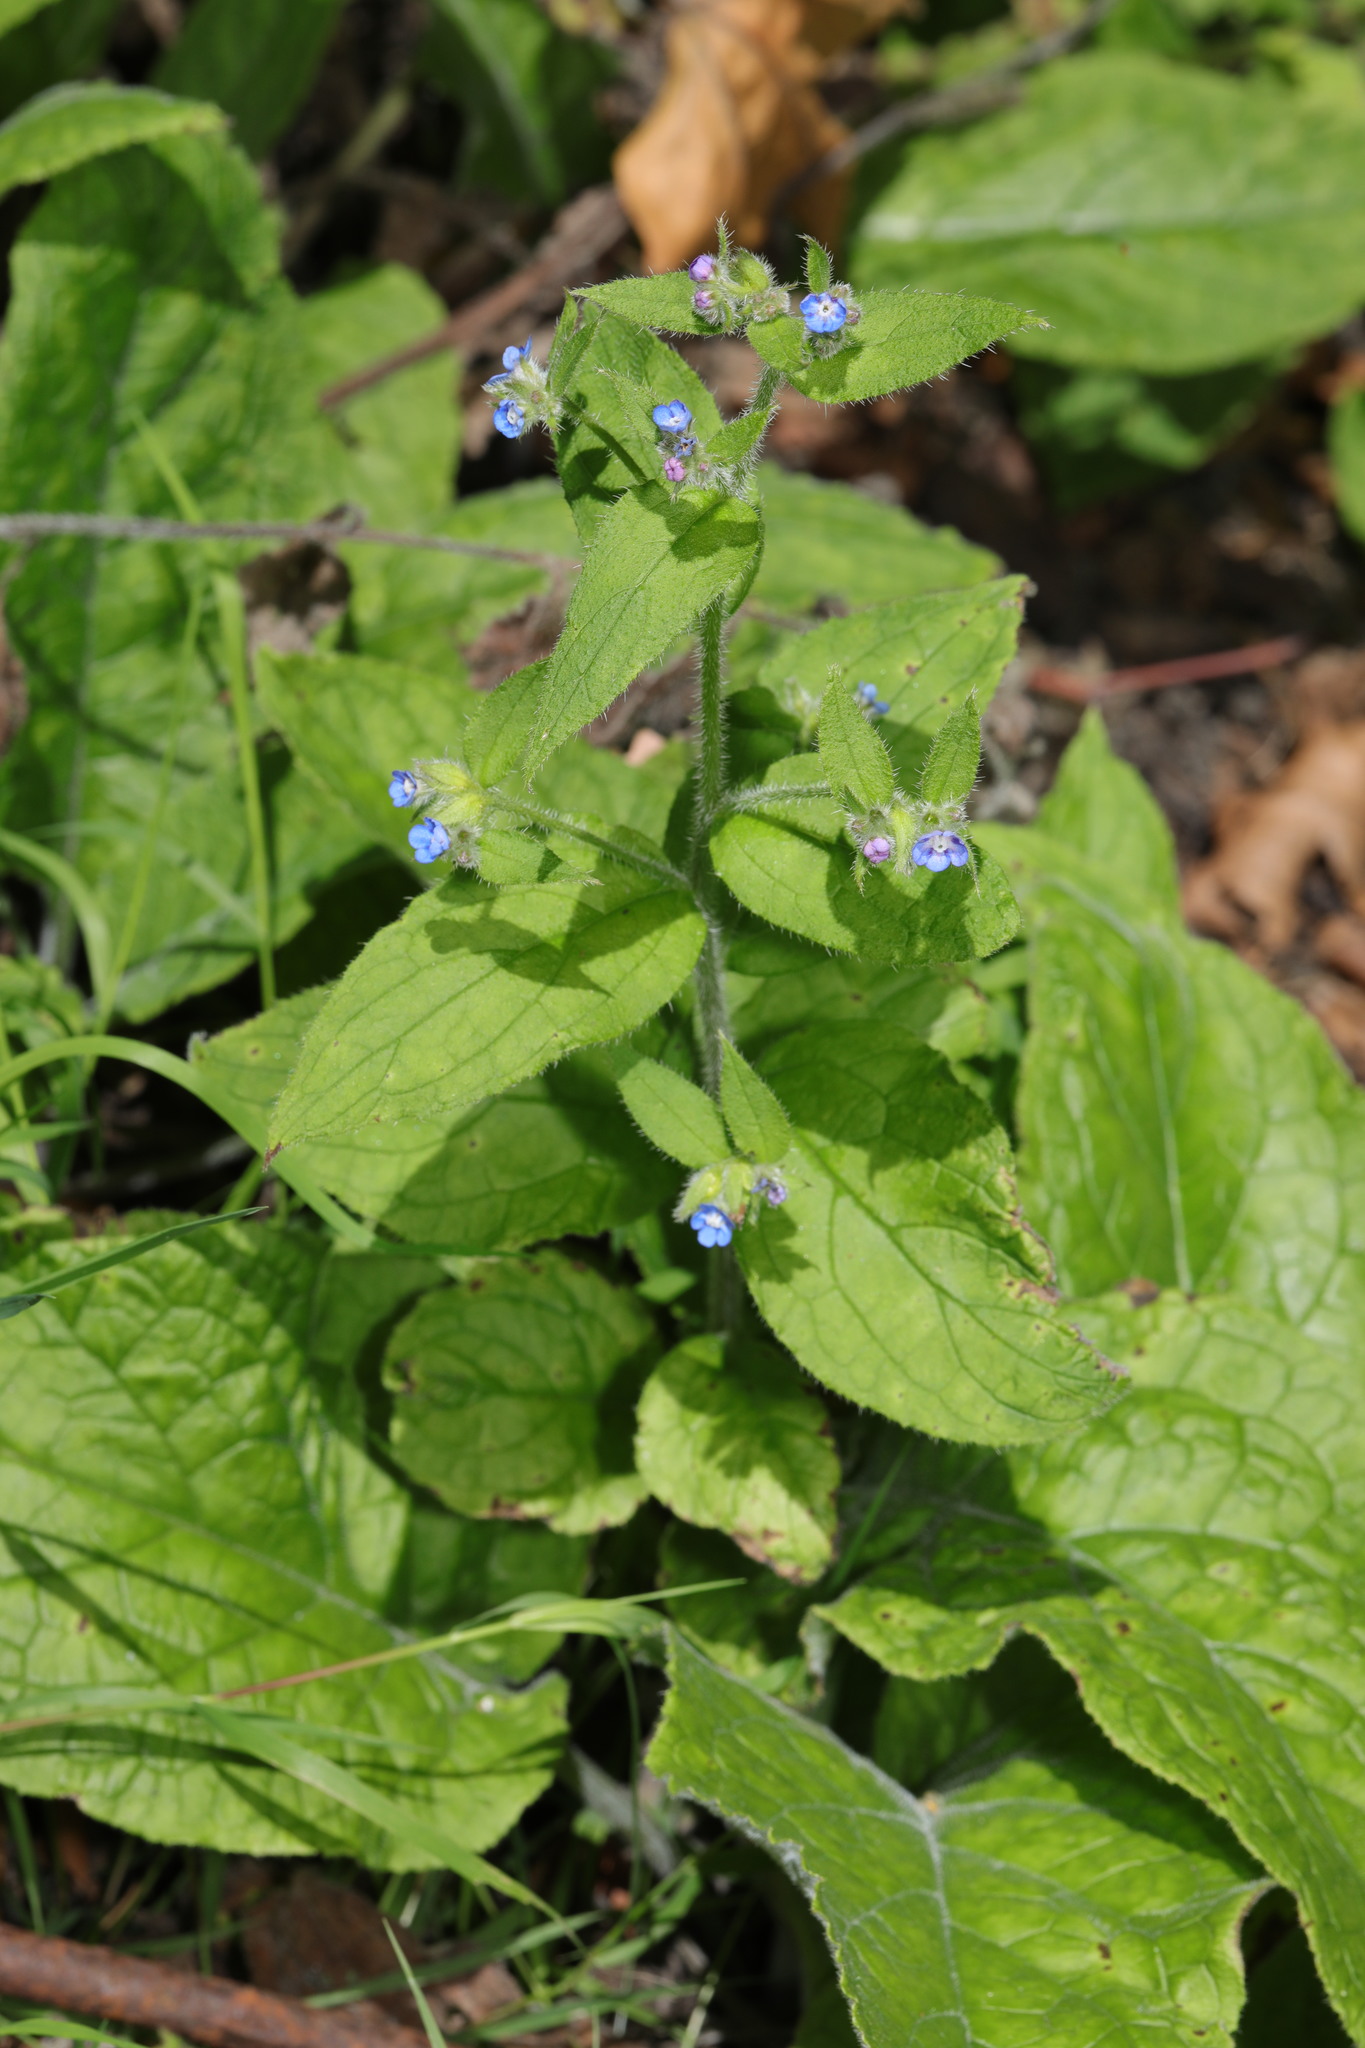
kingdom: Plantae
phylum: Tracheophyta
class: Magnoliopsida
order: Boraginales
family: Boraginaceae
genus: Pentaglottis
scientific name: Pentaglottis sempervirens
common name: Green alkanet
